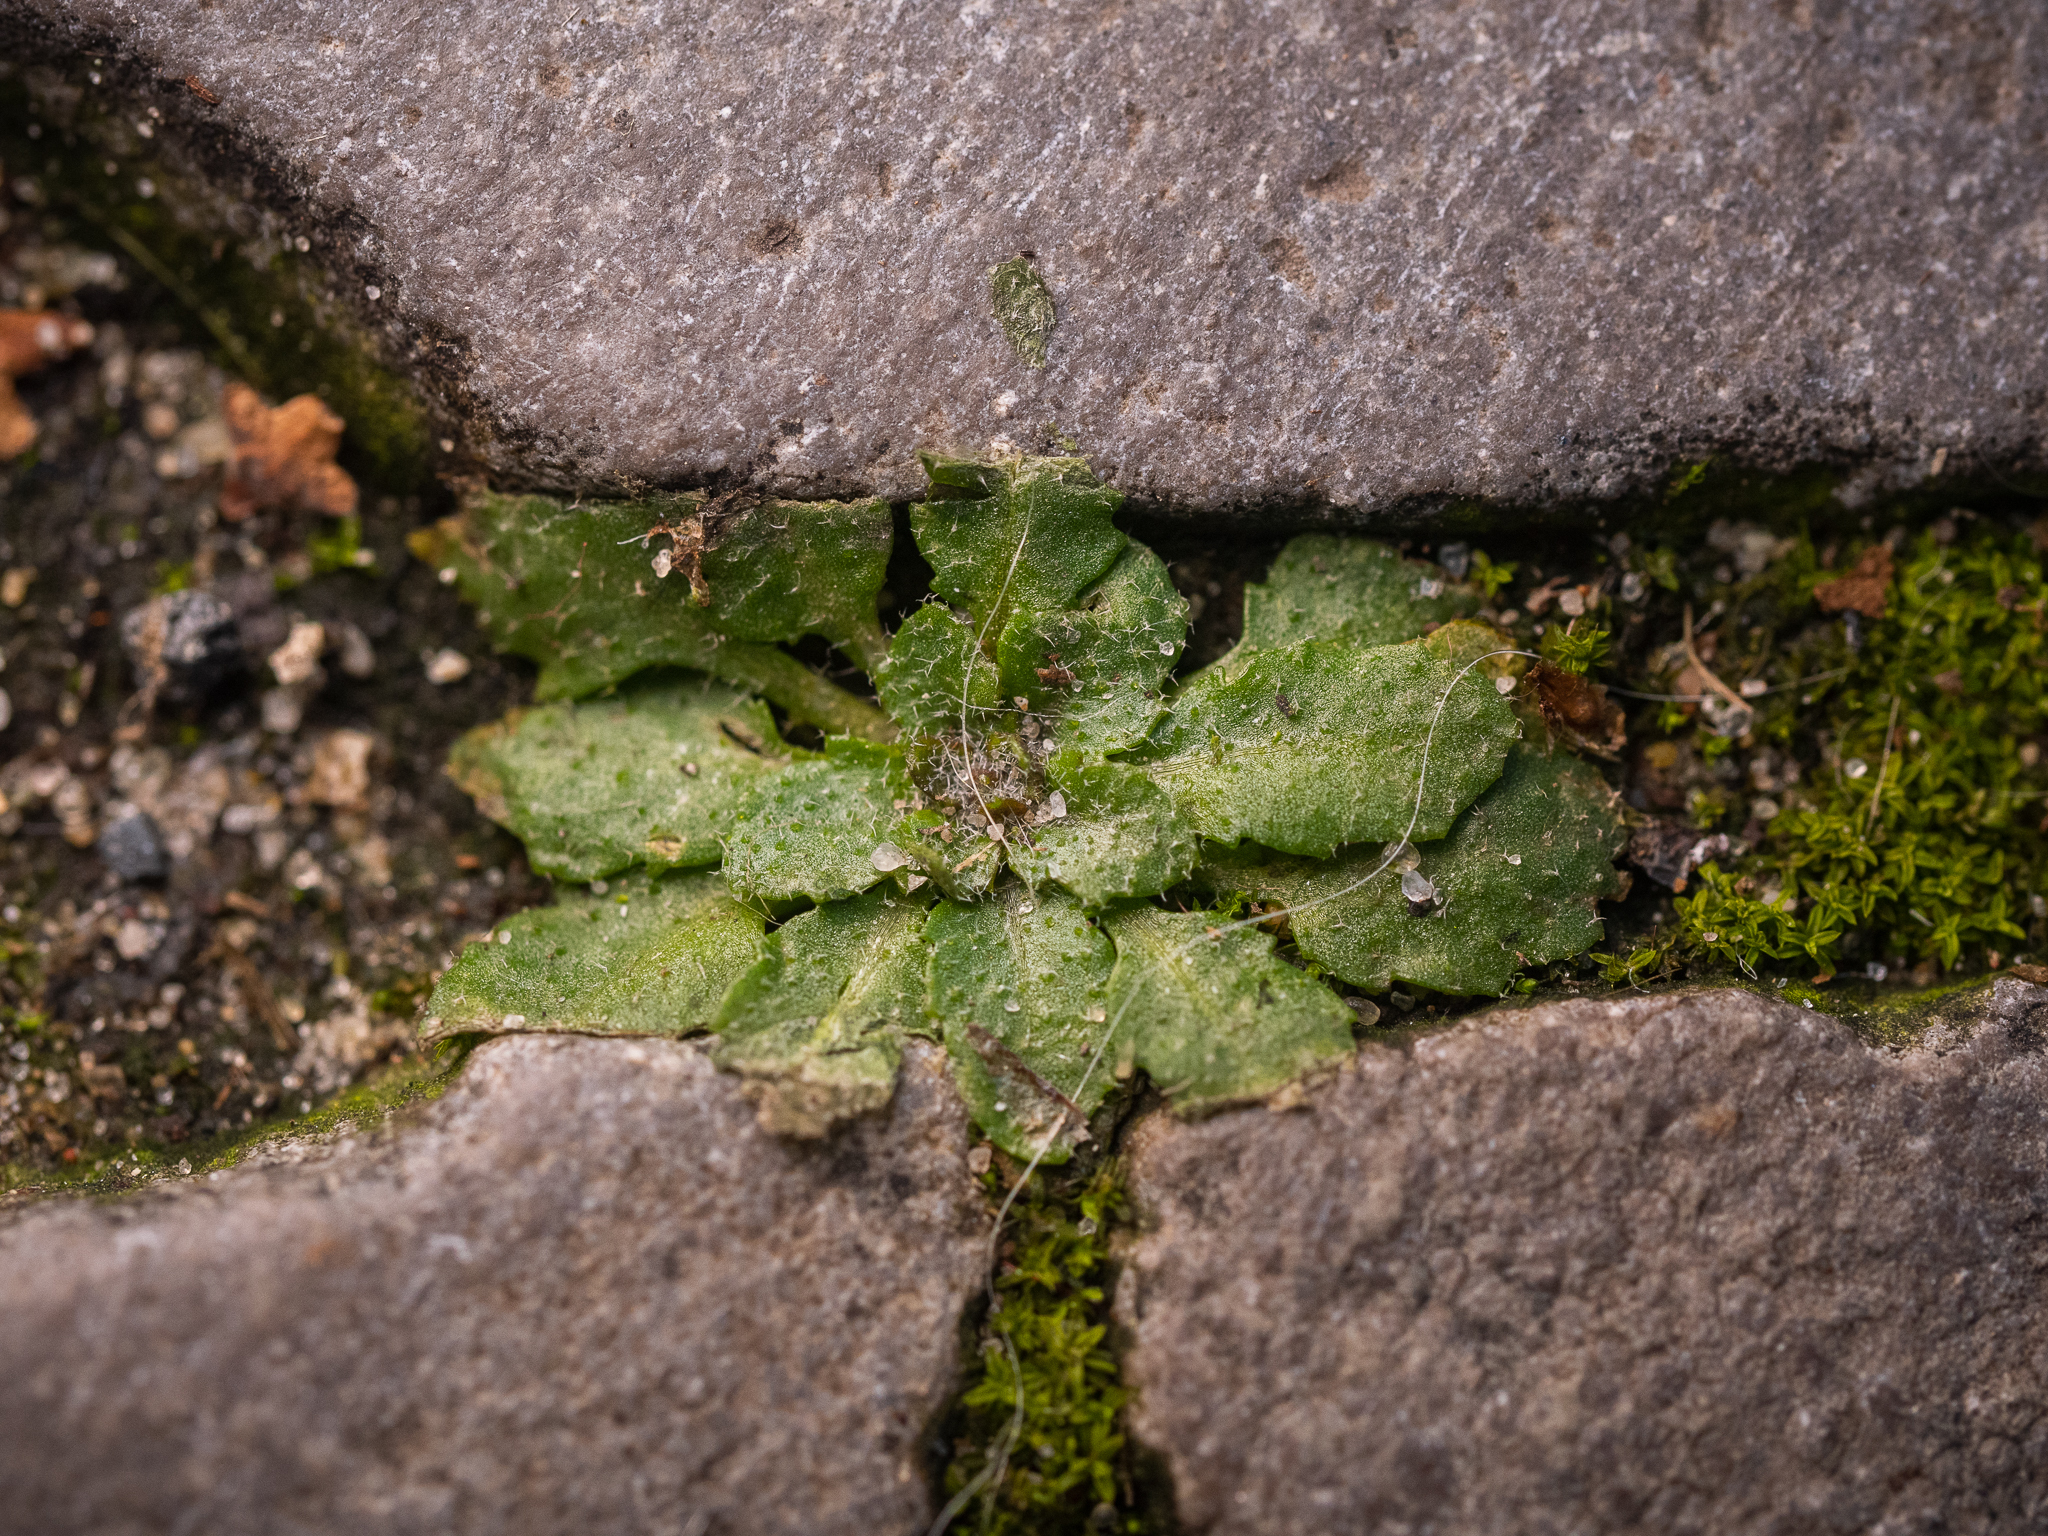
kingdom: Plantae
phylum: Tracheophyta
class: Magnoliopsida
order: Brassicales
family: Brassicaceae
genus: Arabidopsis
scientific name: Arabidopsis thaliana
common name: Thale cress
